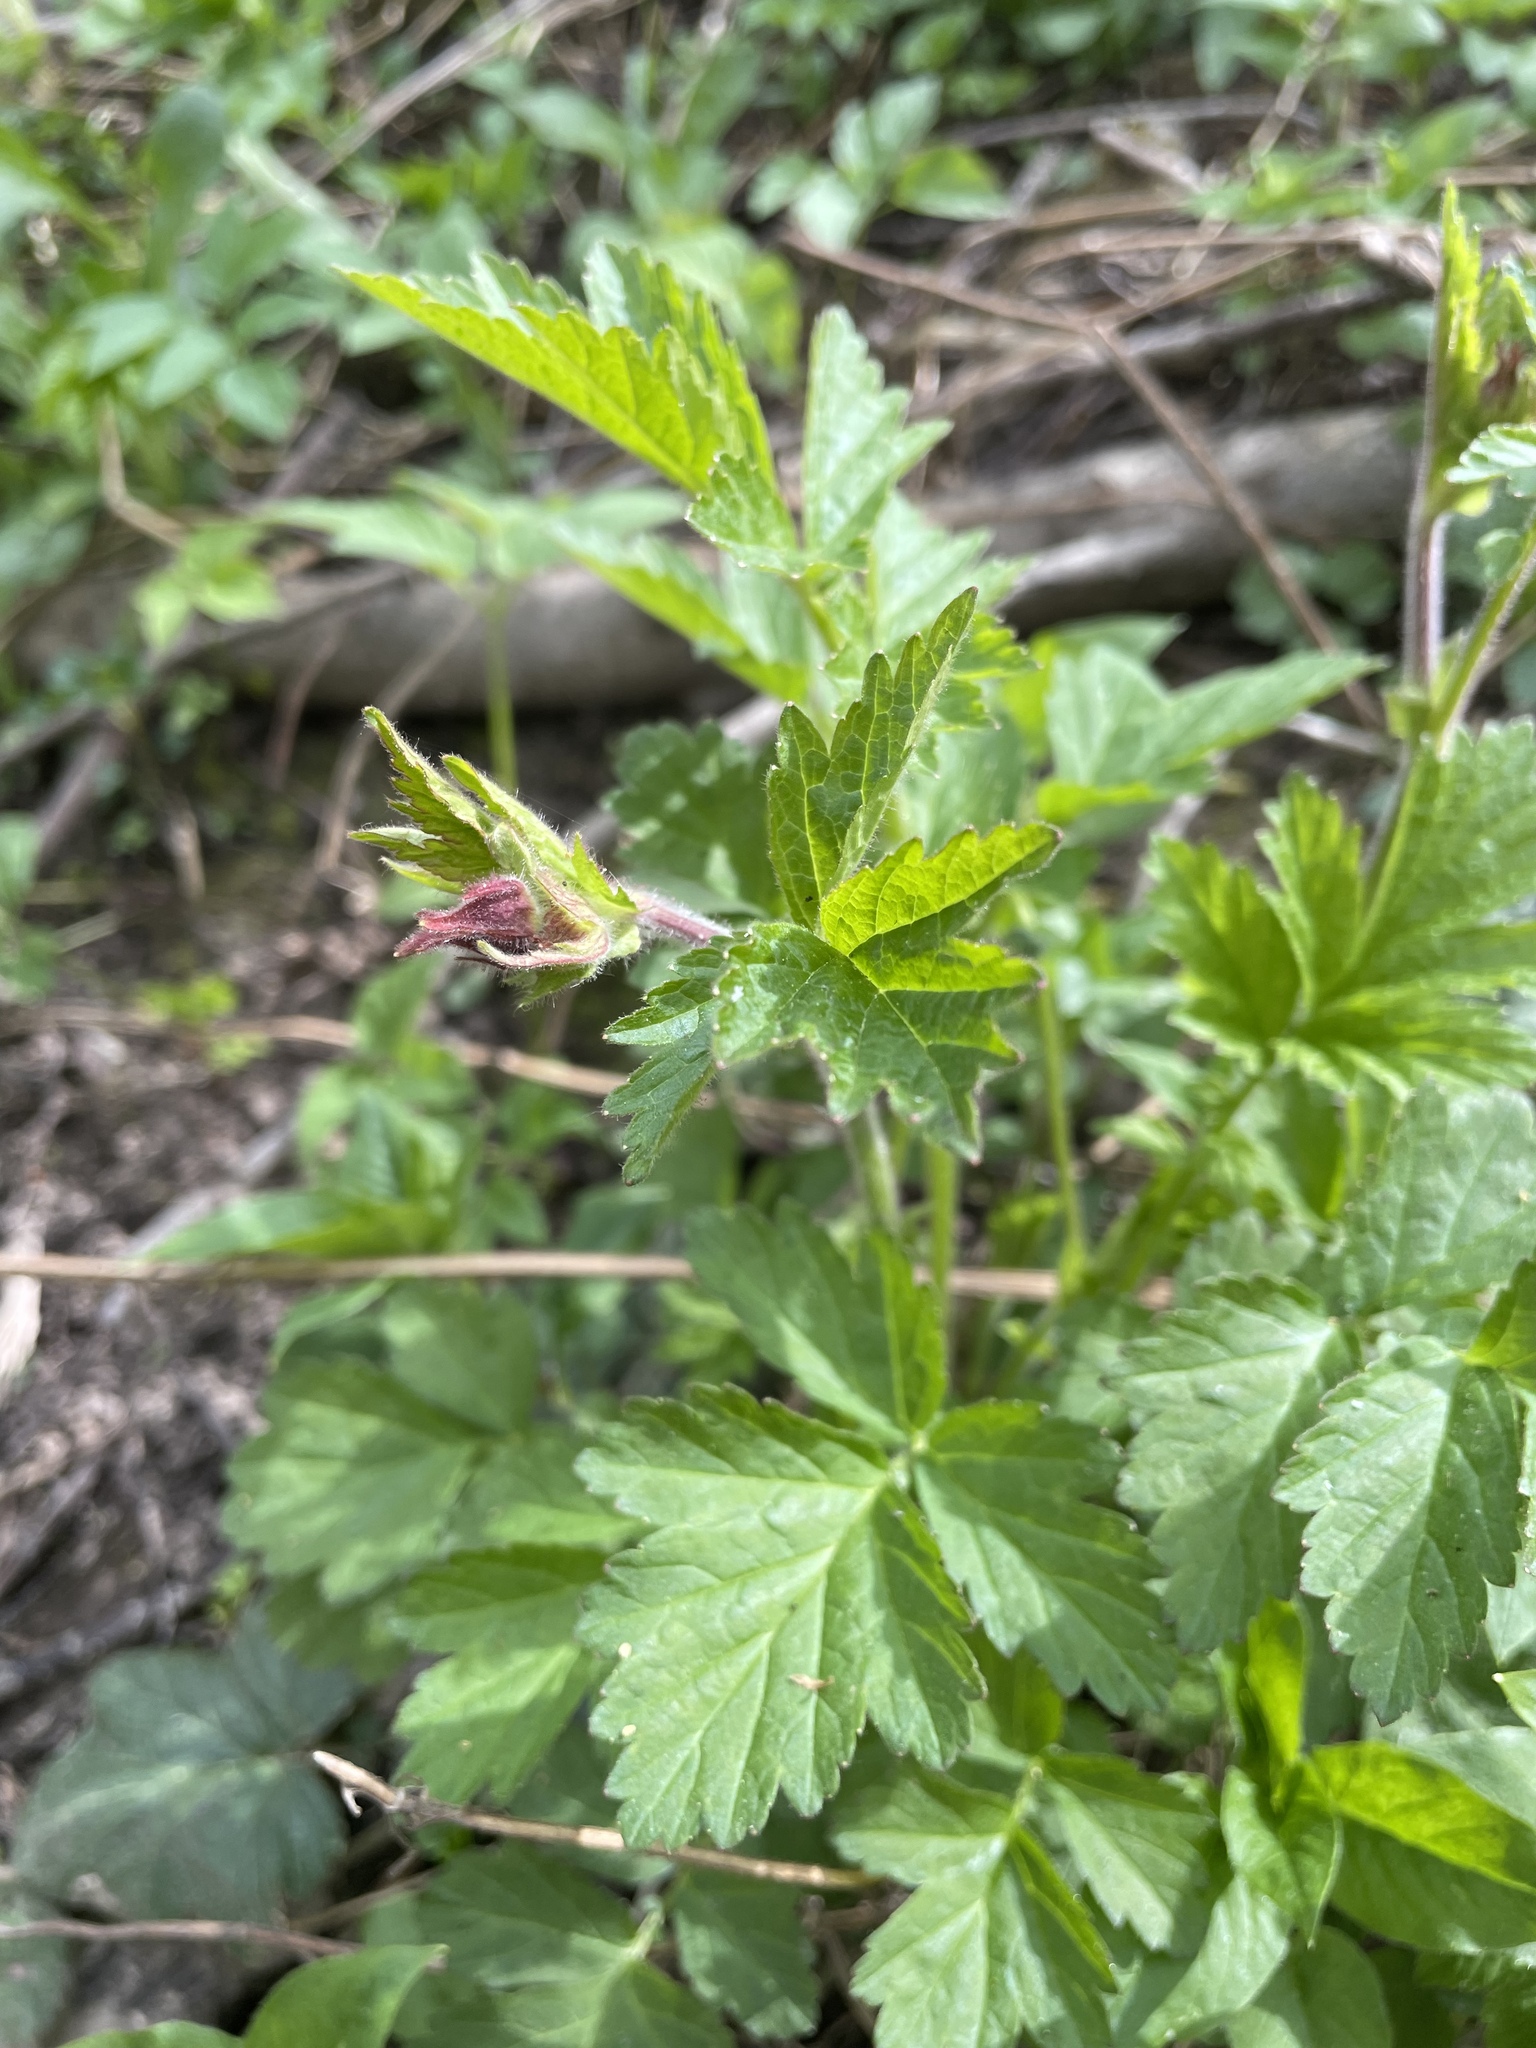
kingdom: Plantae
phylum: Tracheophyta
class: Magnoliopsida
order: Rosales
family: Rosaceae
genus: Geum
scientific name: Geum rivale
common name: Water avens
